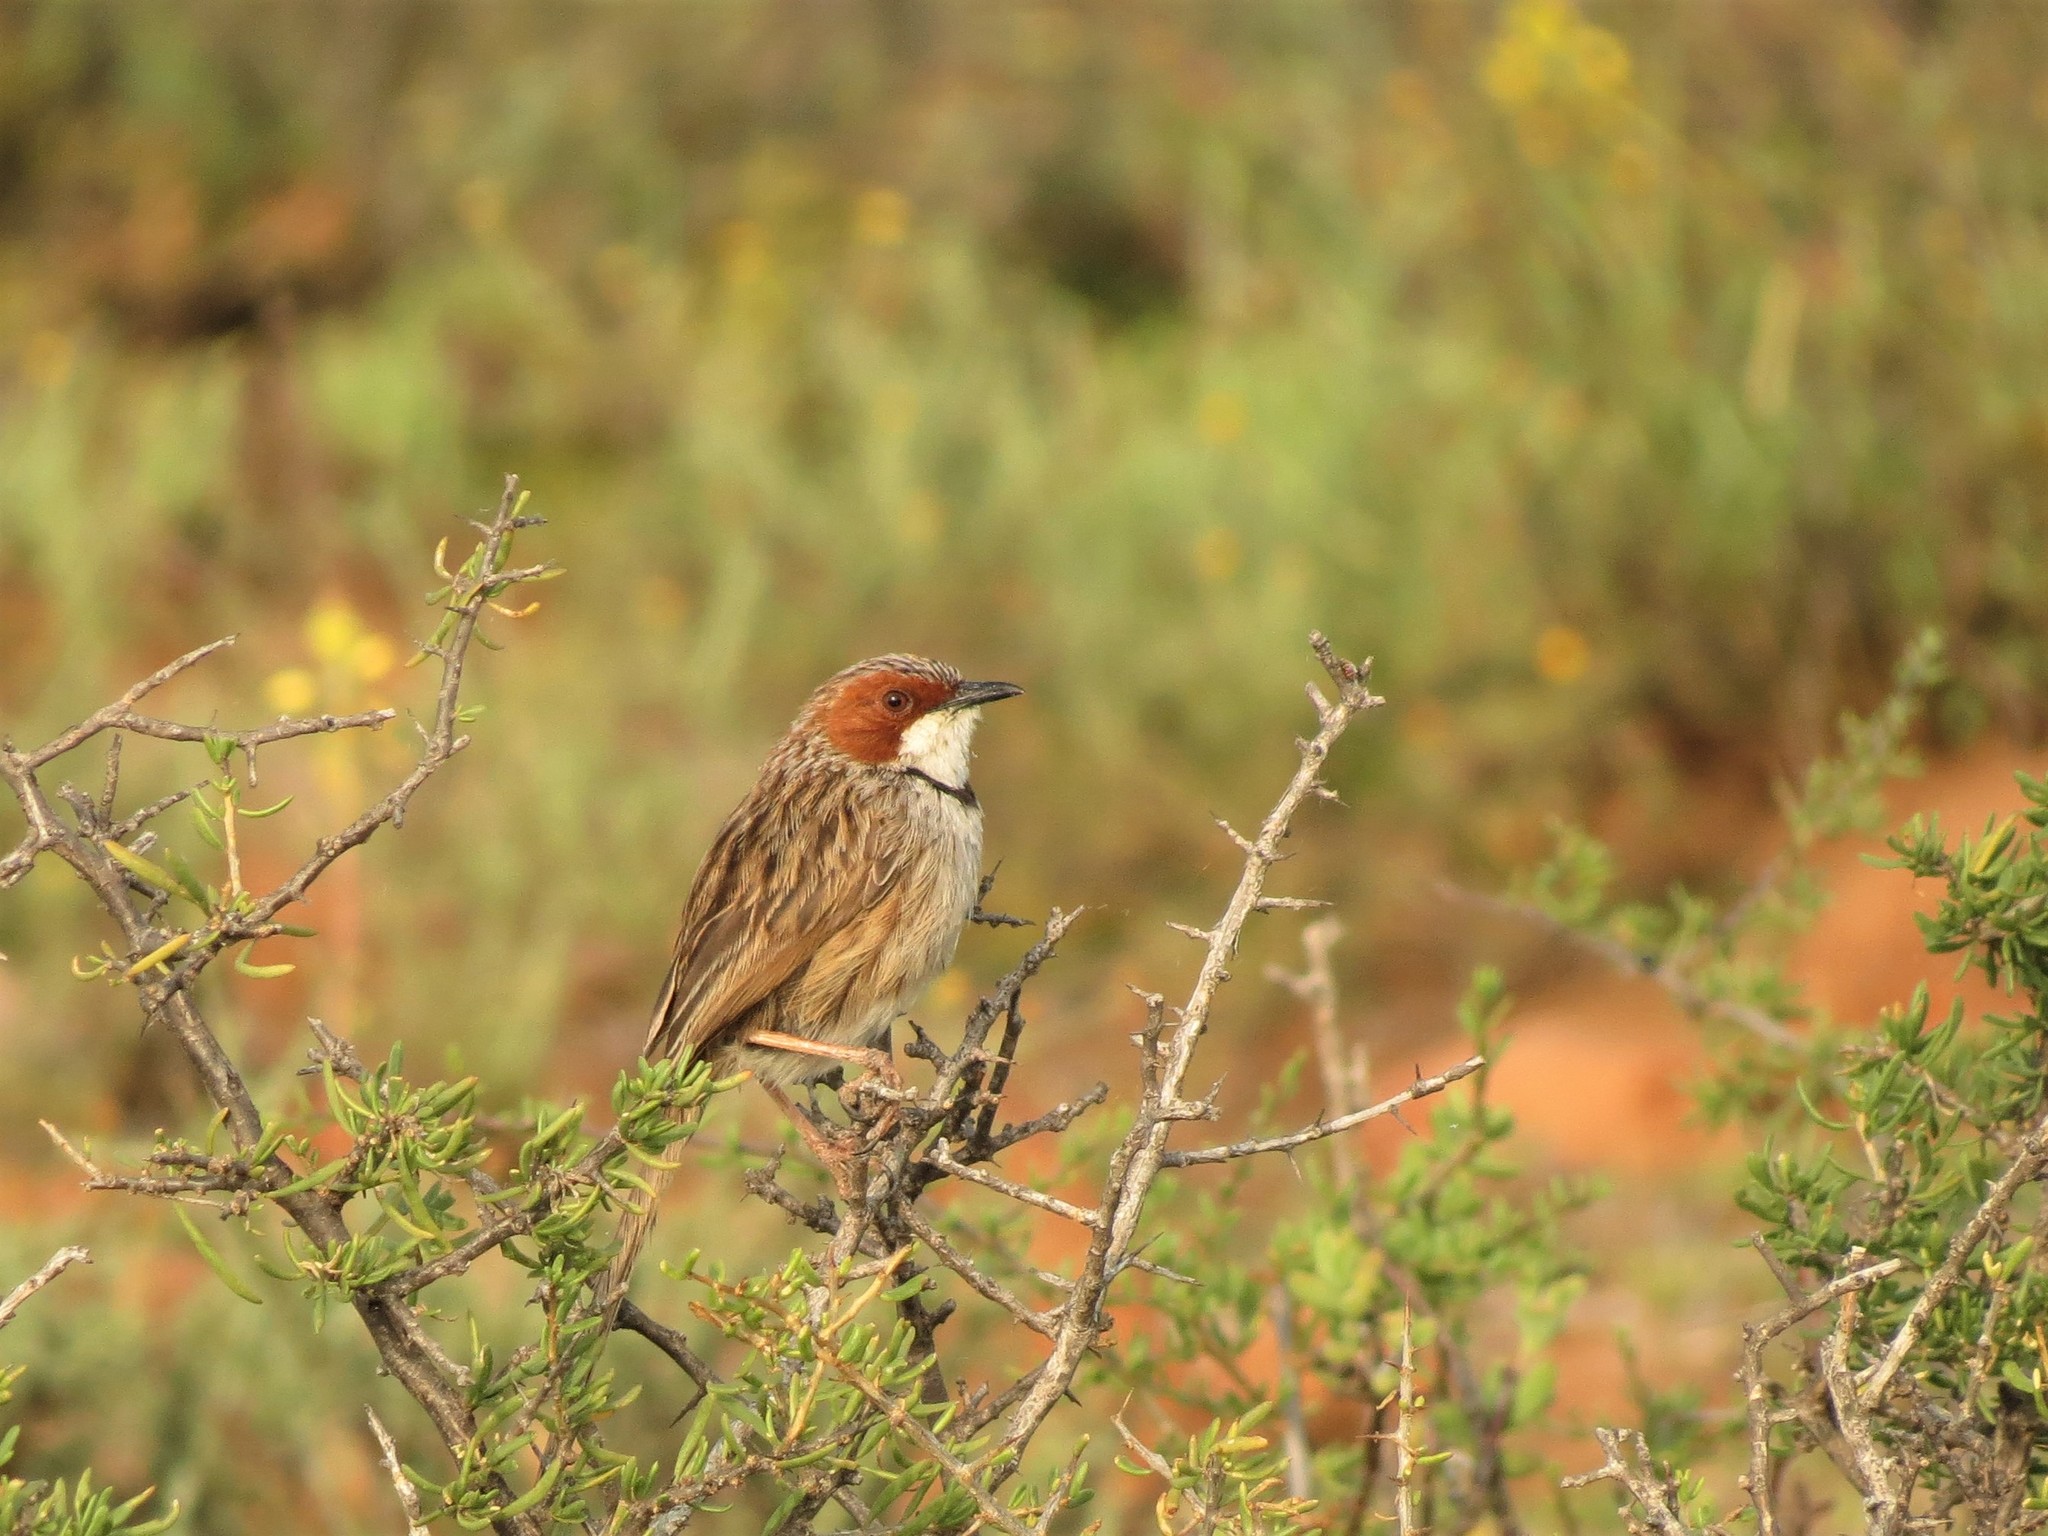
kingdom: Animalia
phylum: Chordata
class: Aves
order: Passeriformes
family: Cisticolidae
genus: Malcorus
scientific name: Malcorus pectoralis
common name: Rufous-eared warbler
